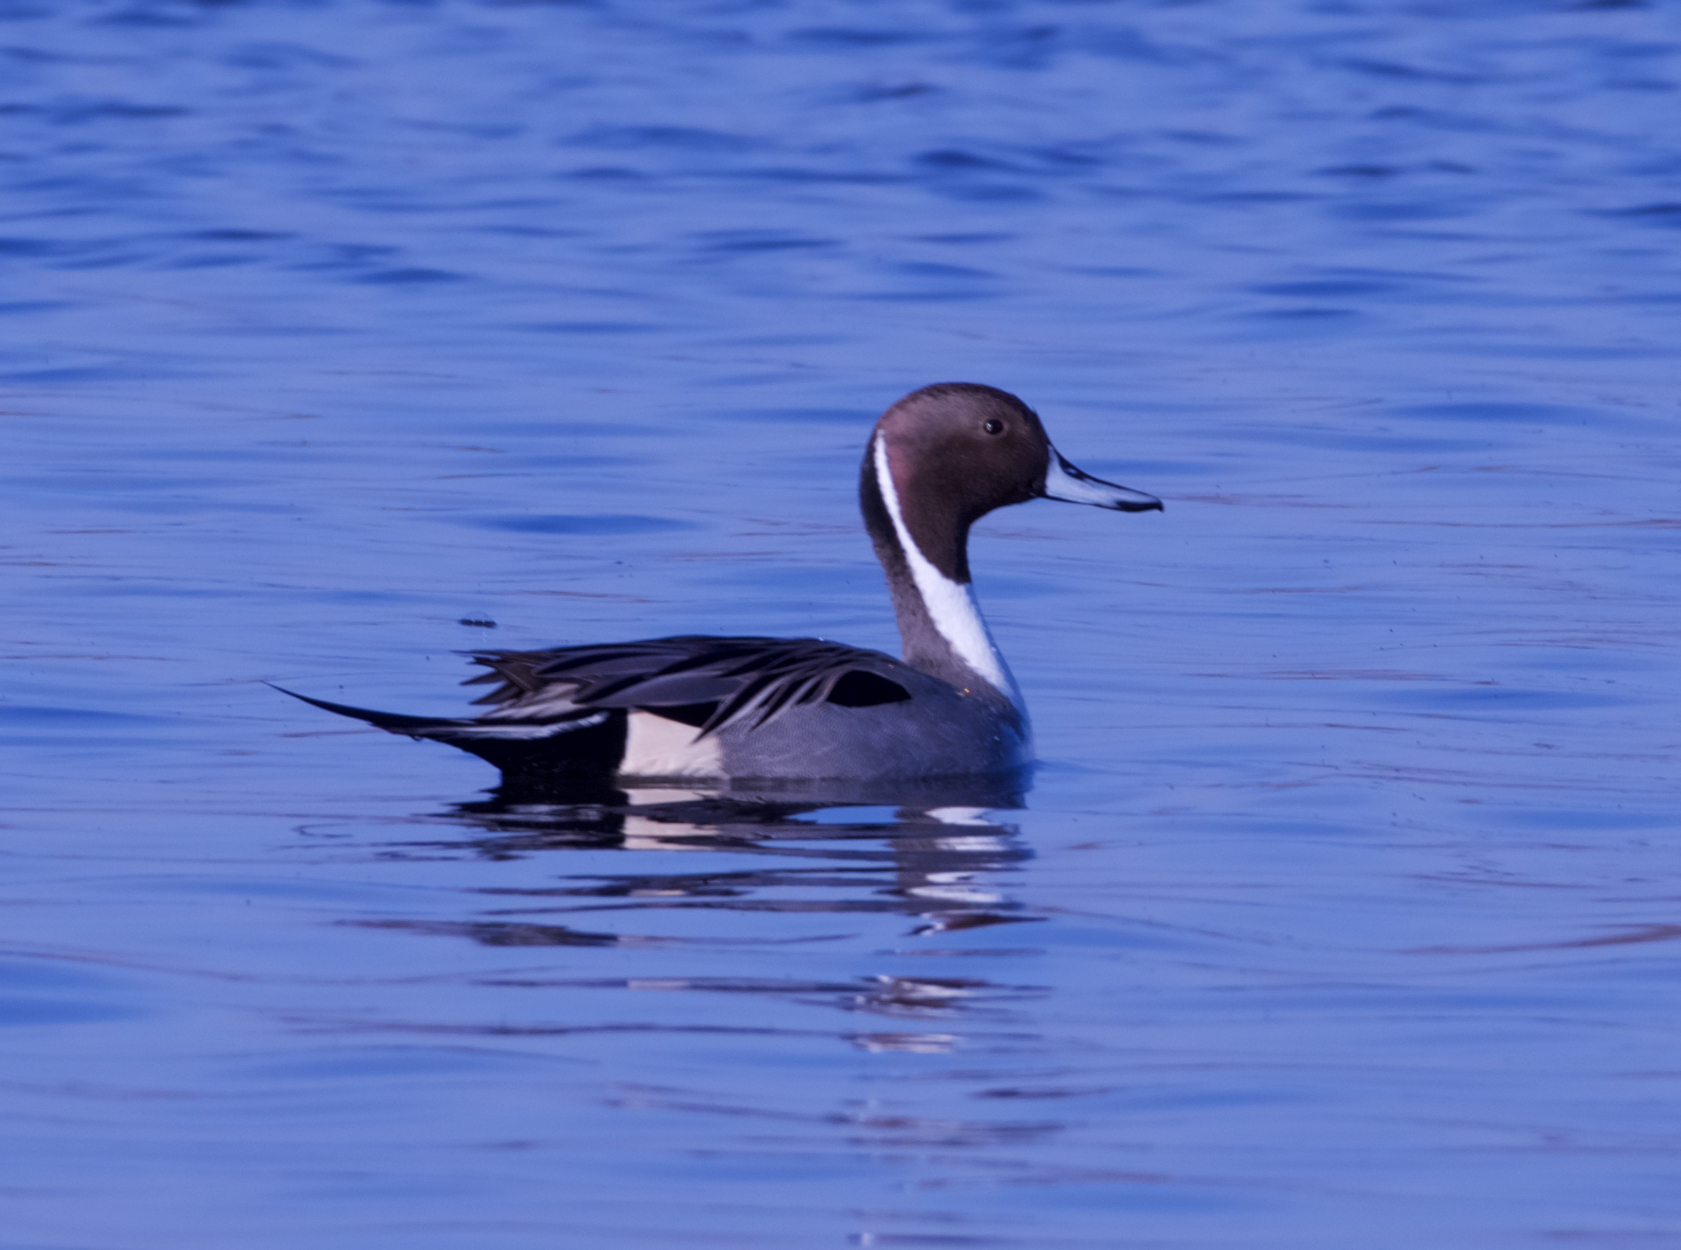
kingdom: Animalia
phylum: Chordata
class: Aves
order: Anseriformes
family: Anatidae
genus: Anas
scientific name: Anas acuta
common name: Northern pintail
